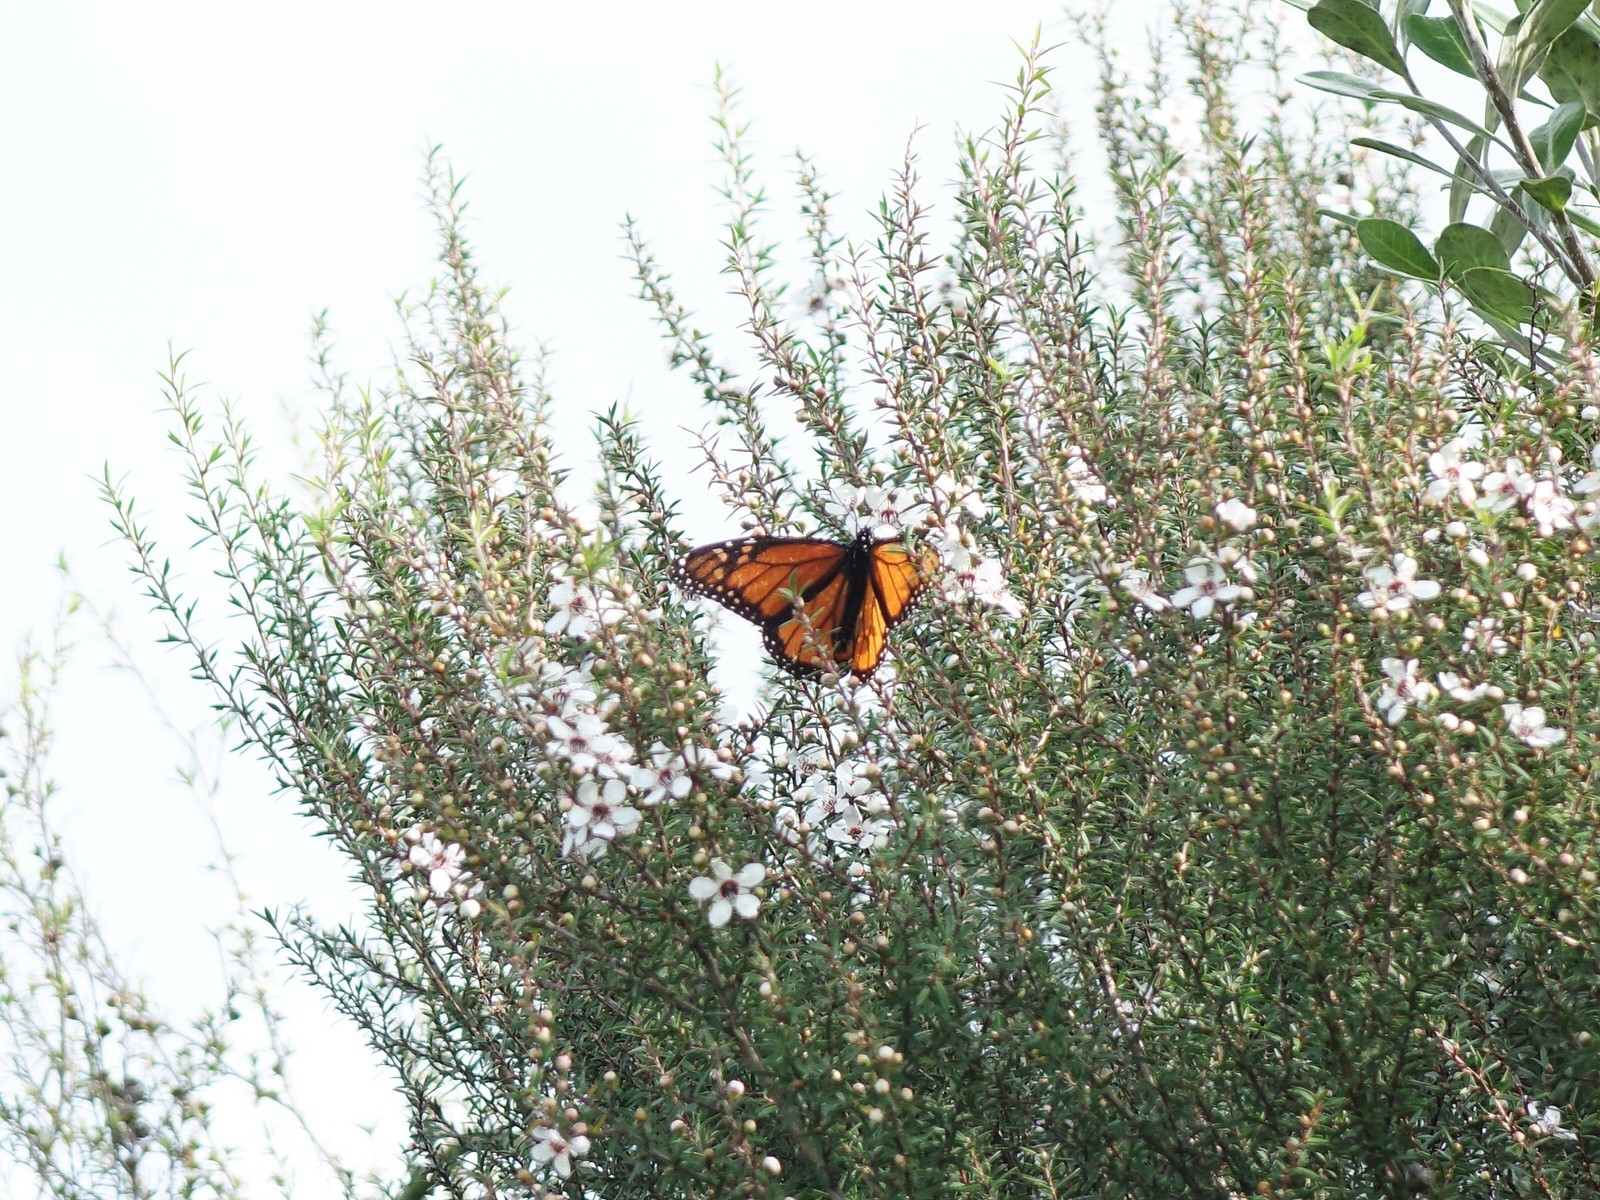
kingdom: Animalia
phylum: Arthropoda
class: Insecta
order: Lepidoptera
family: Nymphalidae
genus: Danaus
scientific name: Danaus plexippus
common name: Monarch
